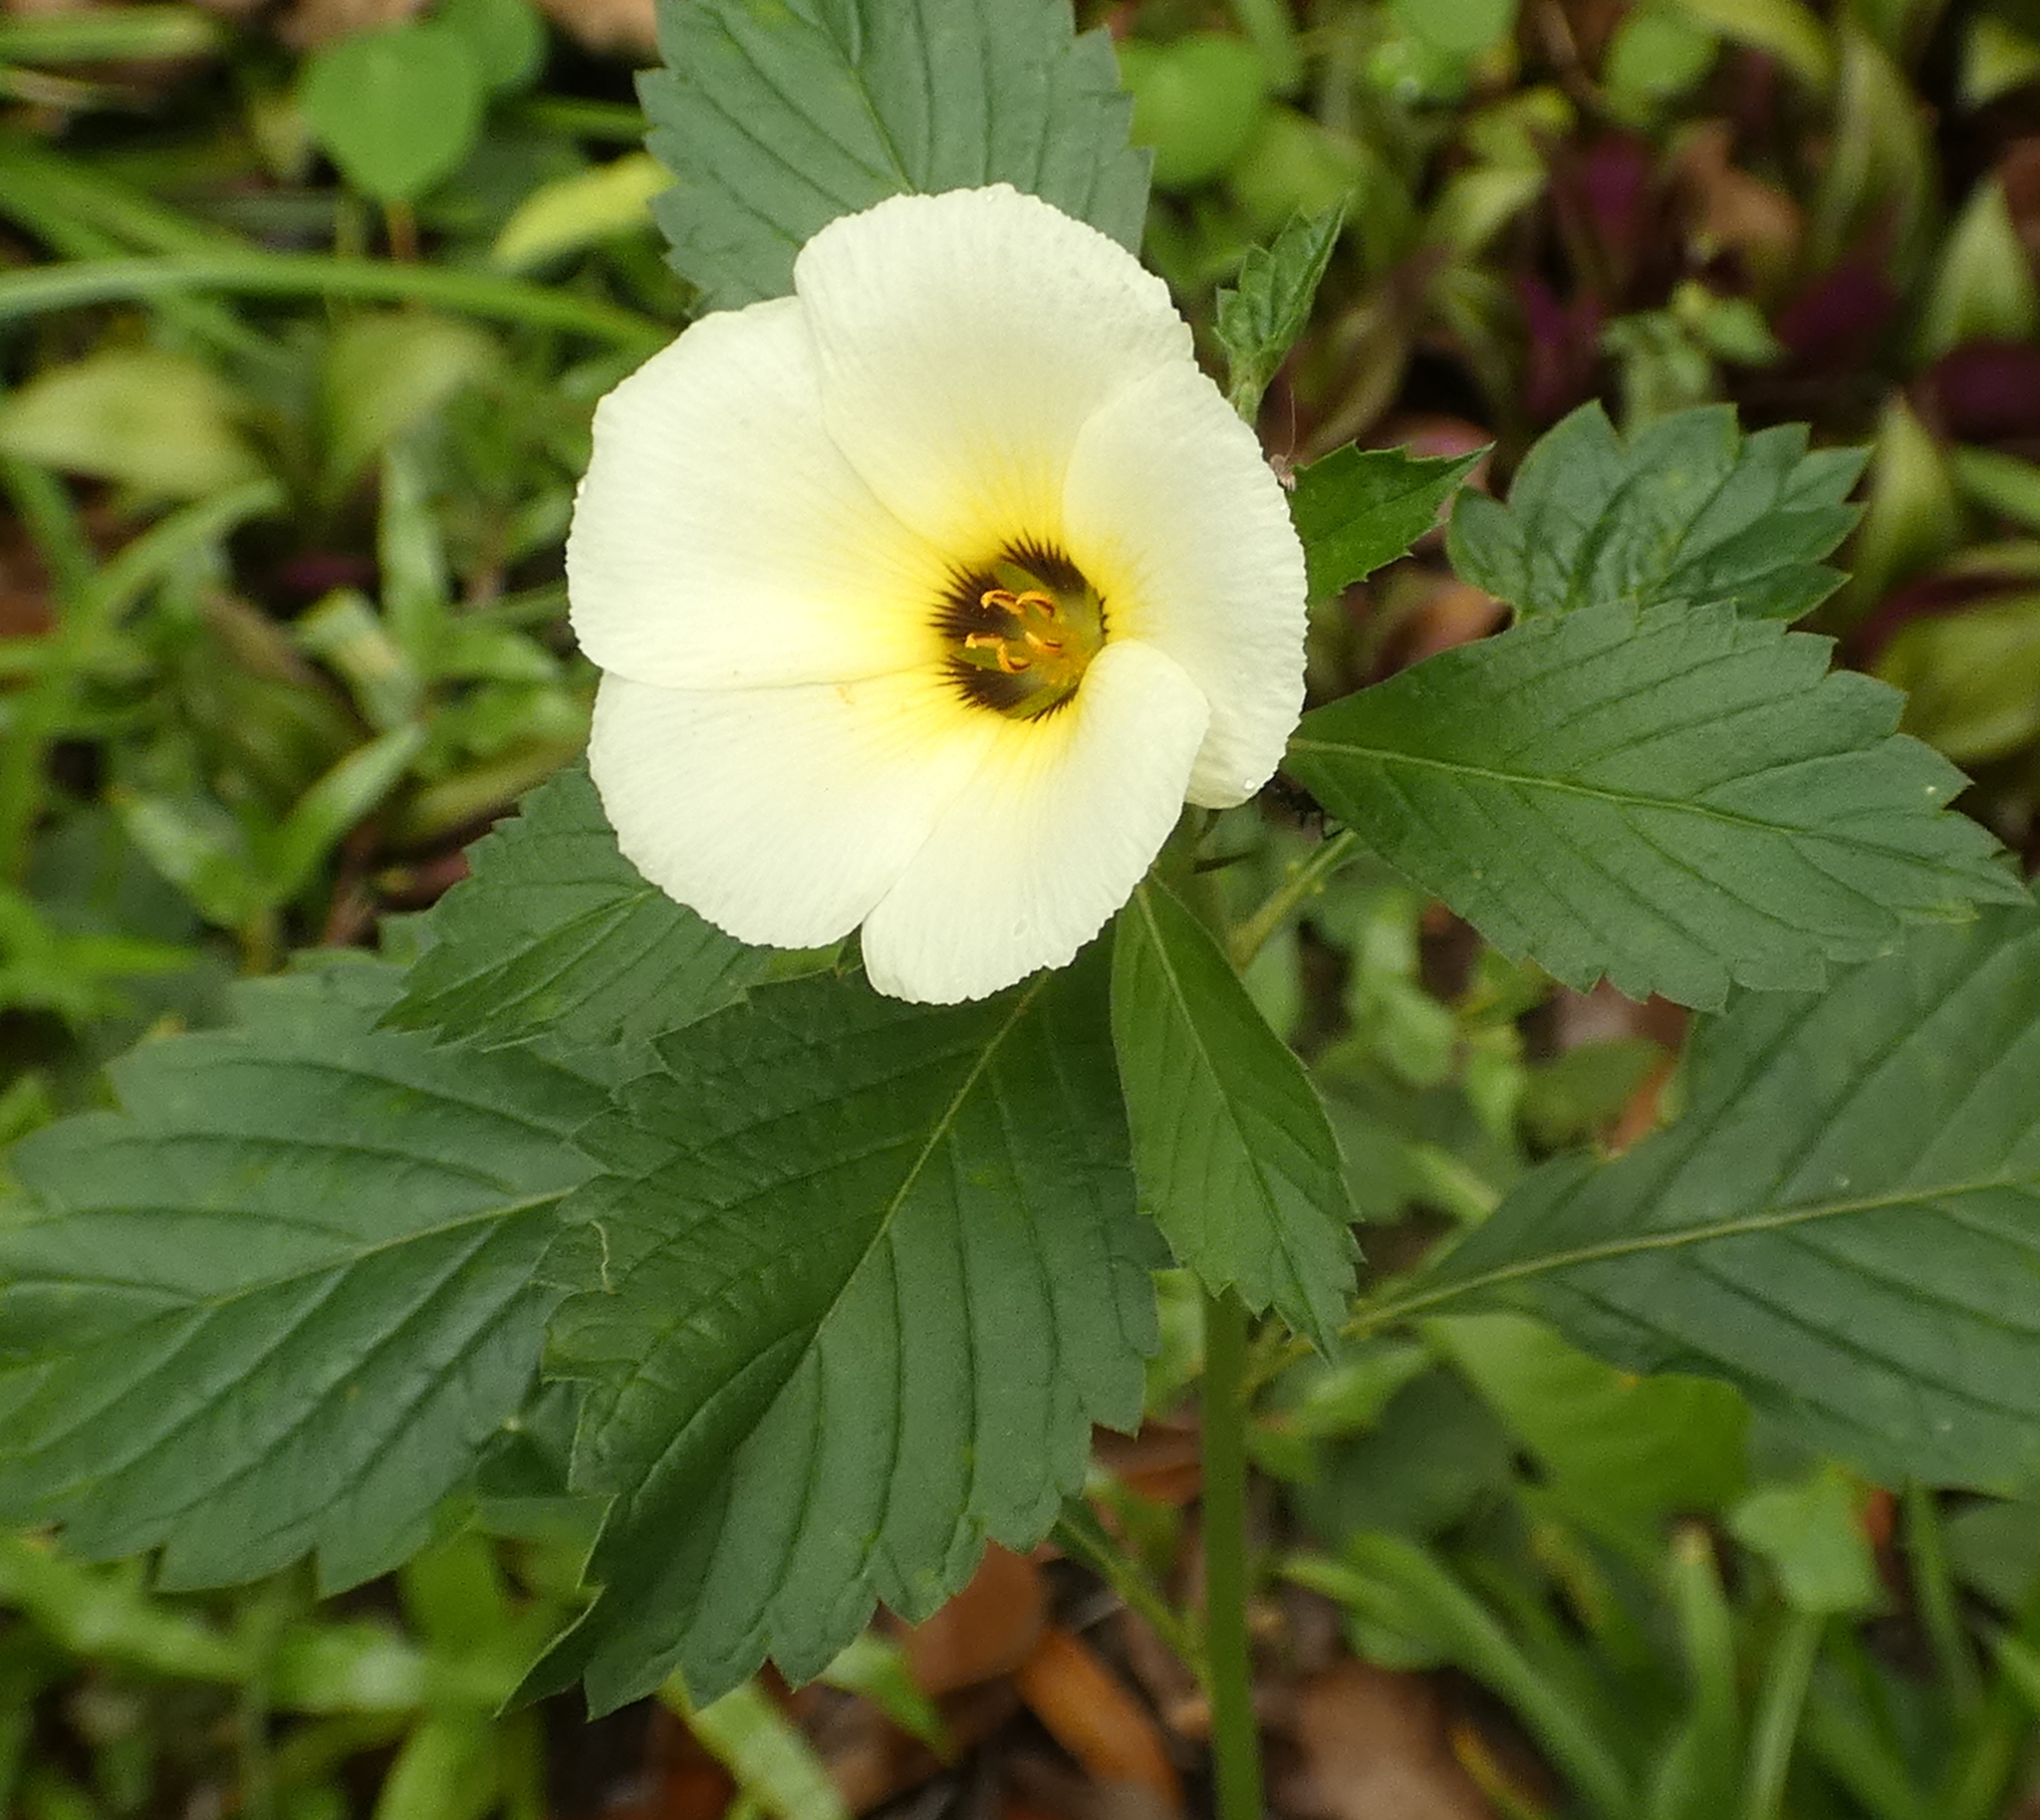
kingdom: Plantae
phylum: Tracheophyta
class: Magnoliopsida
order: Malpighiales
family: Turneraceae
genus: Turnera
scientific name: Turnera subulata
